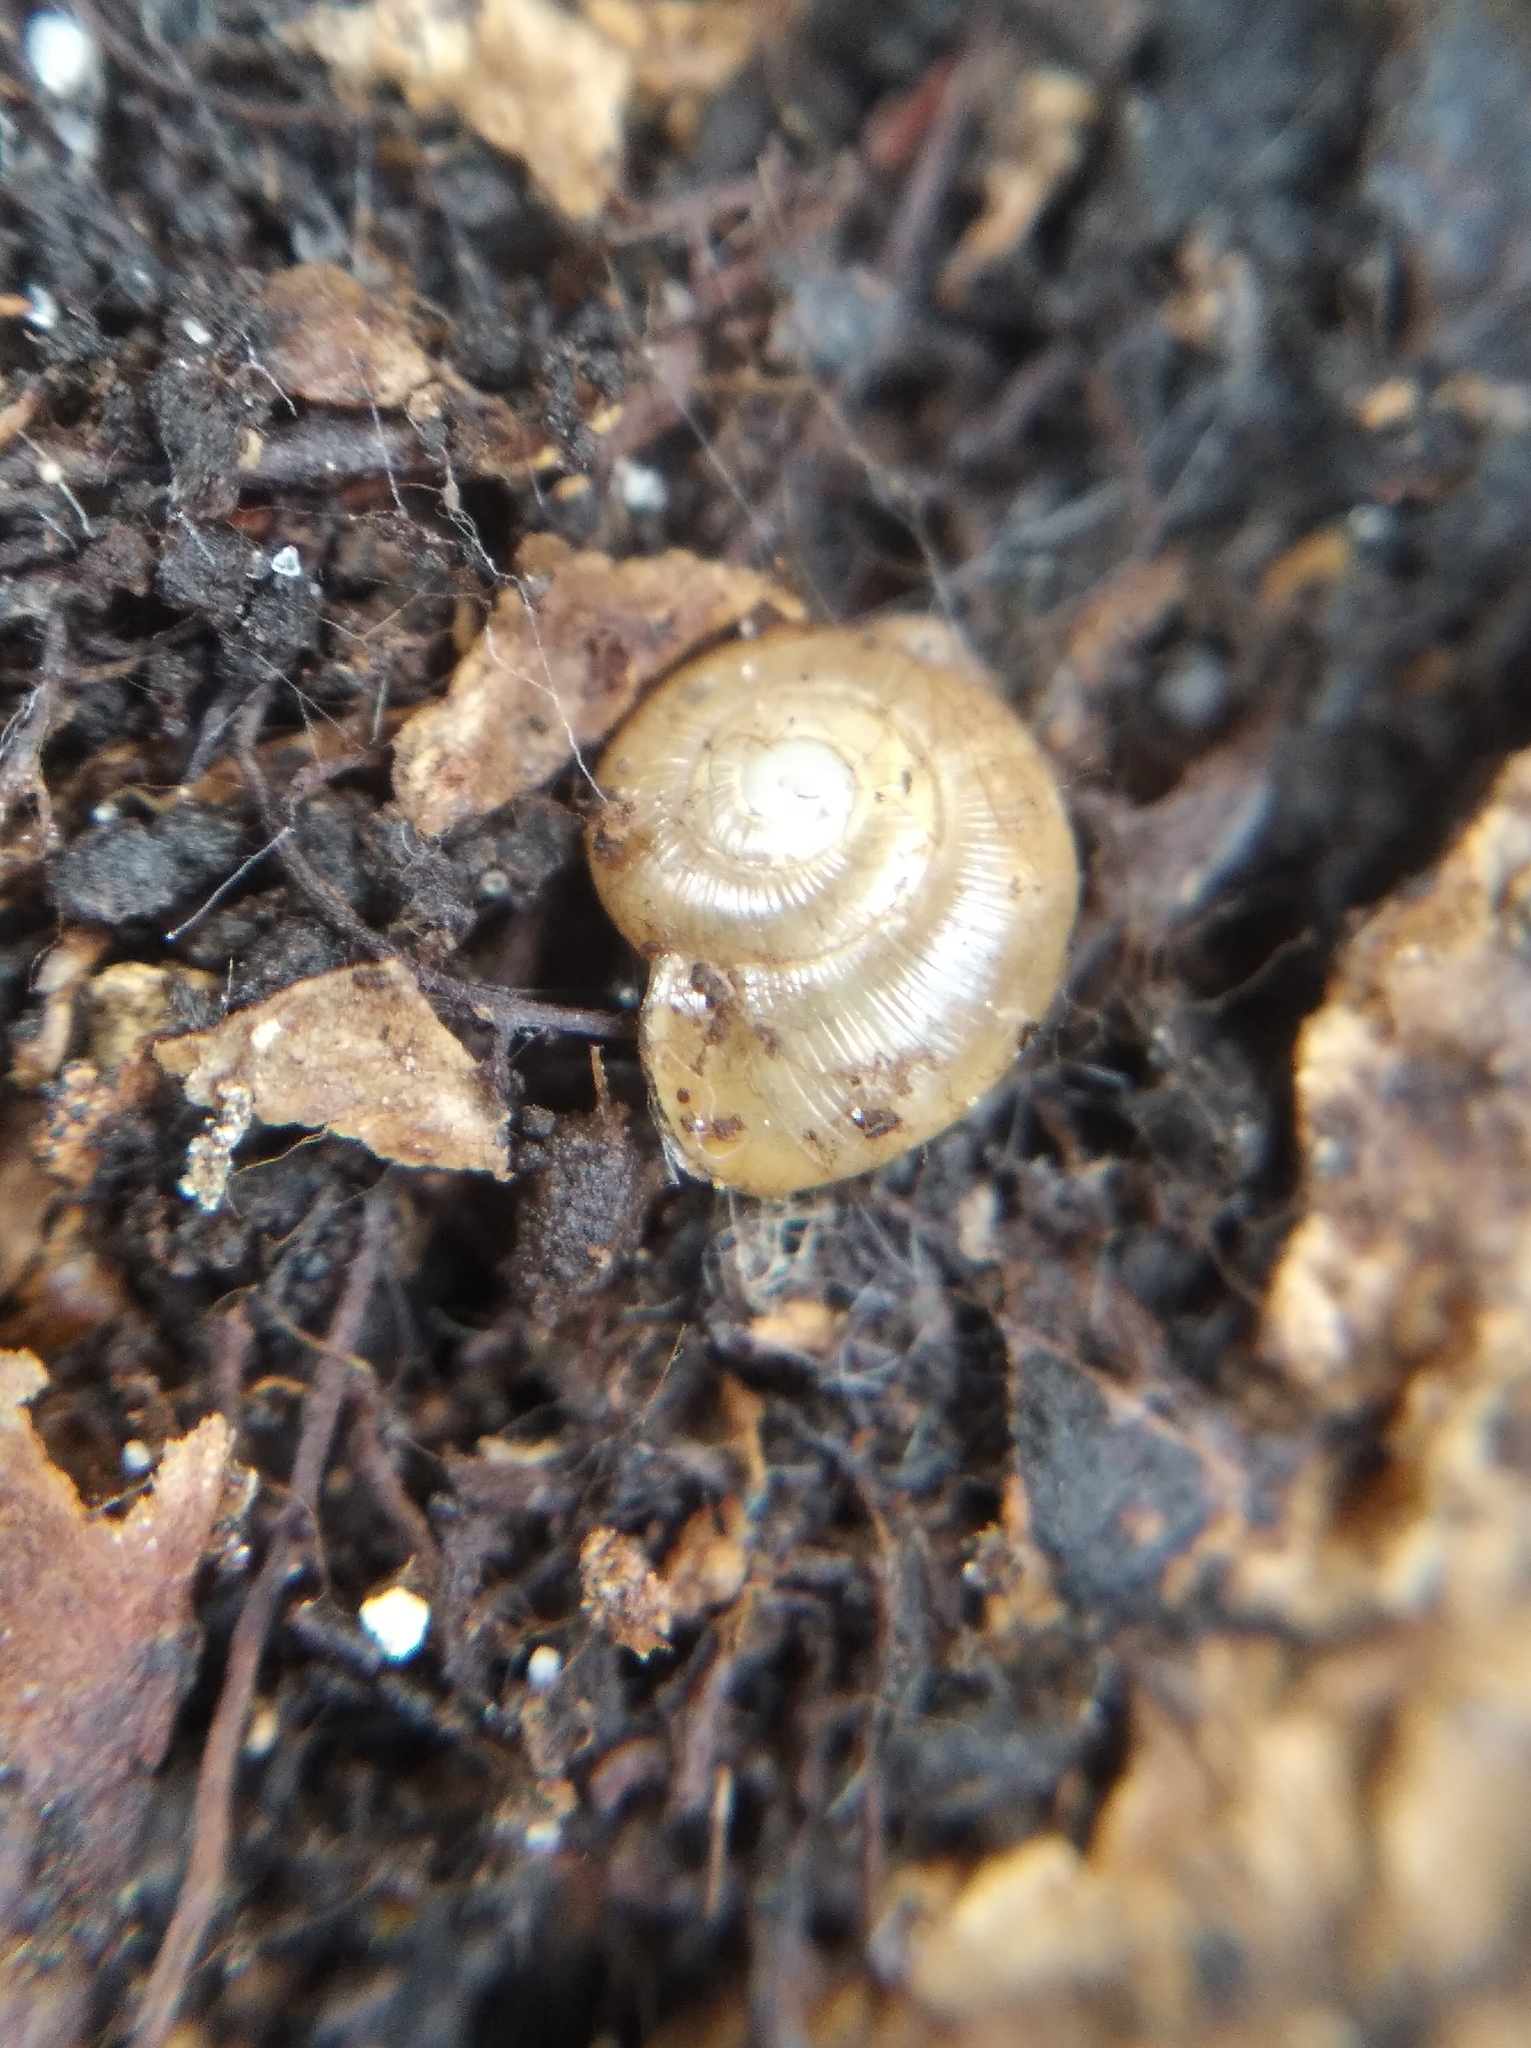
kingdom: Animalia
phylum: Mollusca
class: Gastropoda
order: Stylommatophora
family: Gastrodontidae
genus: Perpolita
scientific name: Perpolita hammonis
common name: Rayed glass snail
